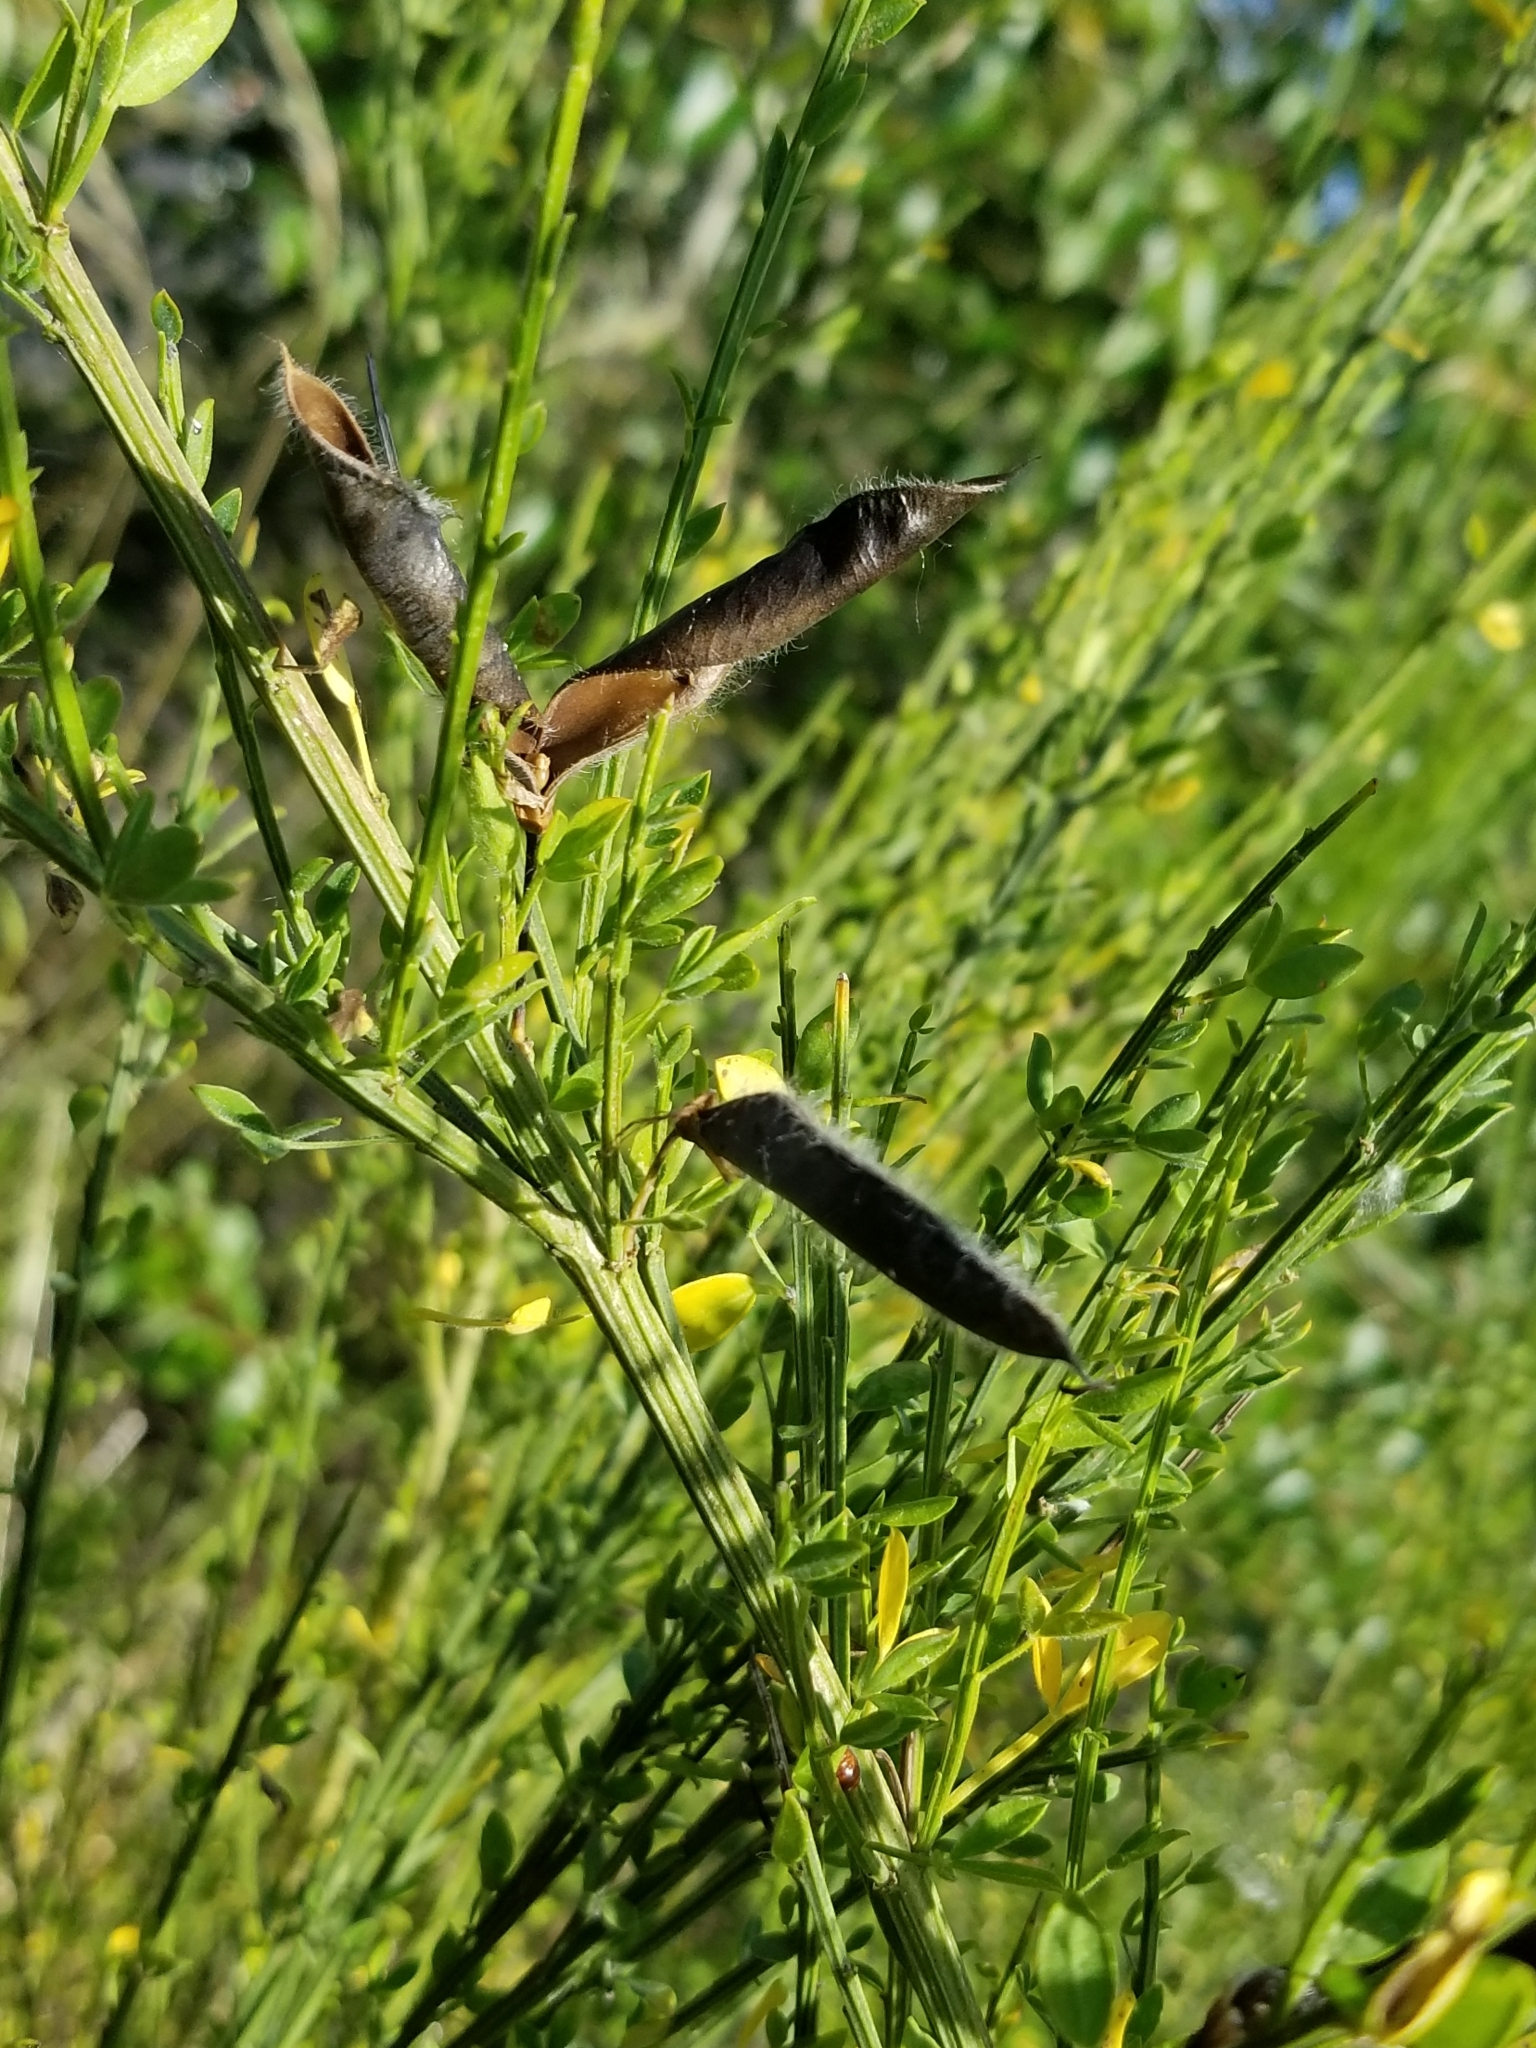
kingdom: Plantae
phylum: Tracheophyta
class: Magnoliopsida
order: Fabales
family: Fabaceae
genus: Cytisus
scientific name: Cytisus scoparius
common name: Scotch broom
